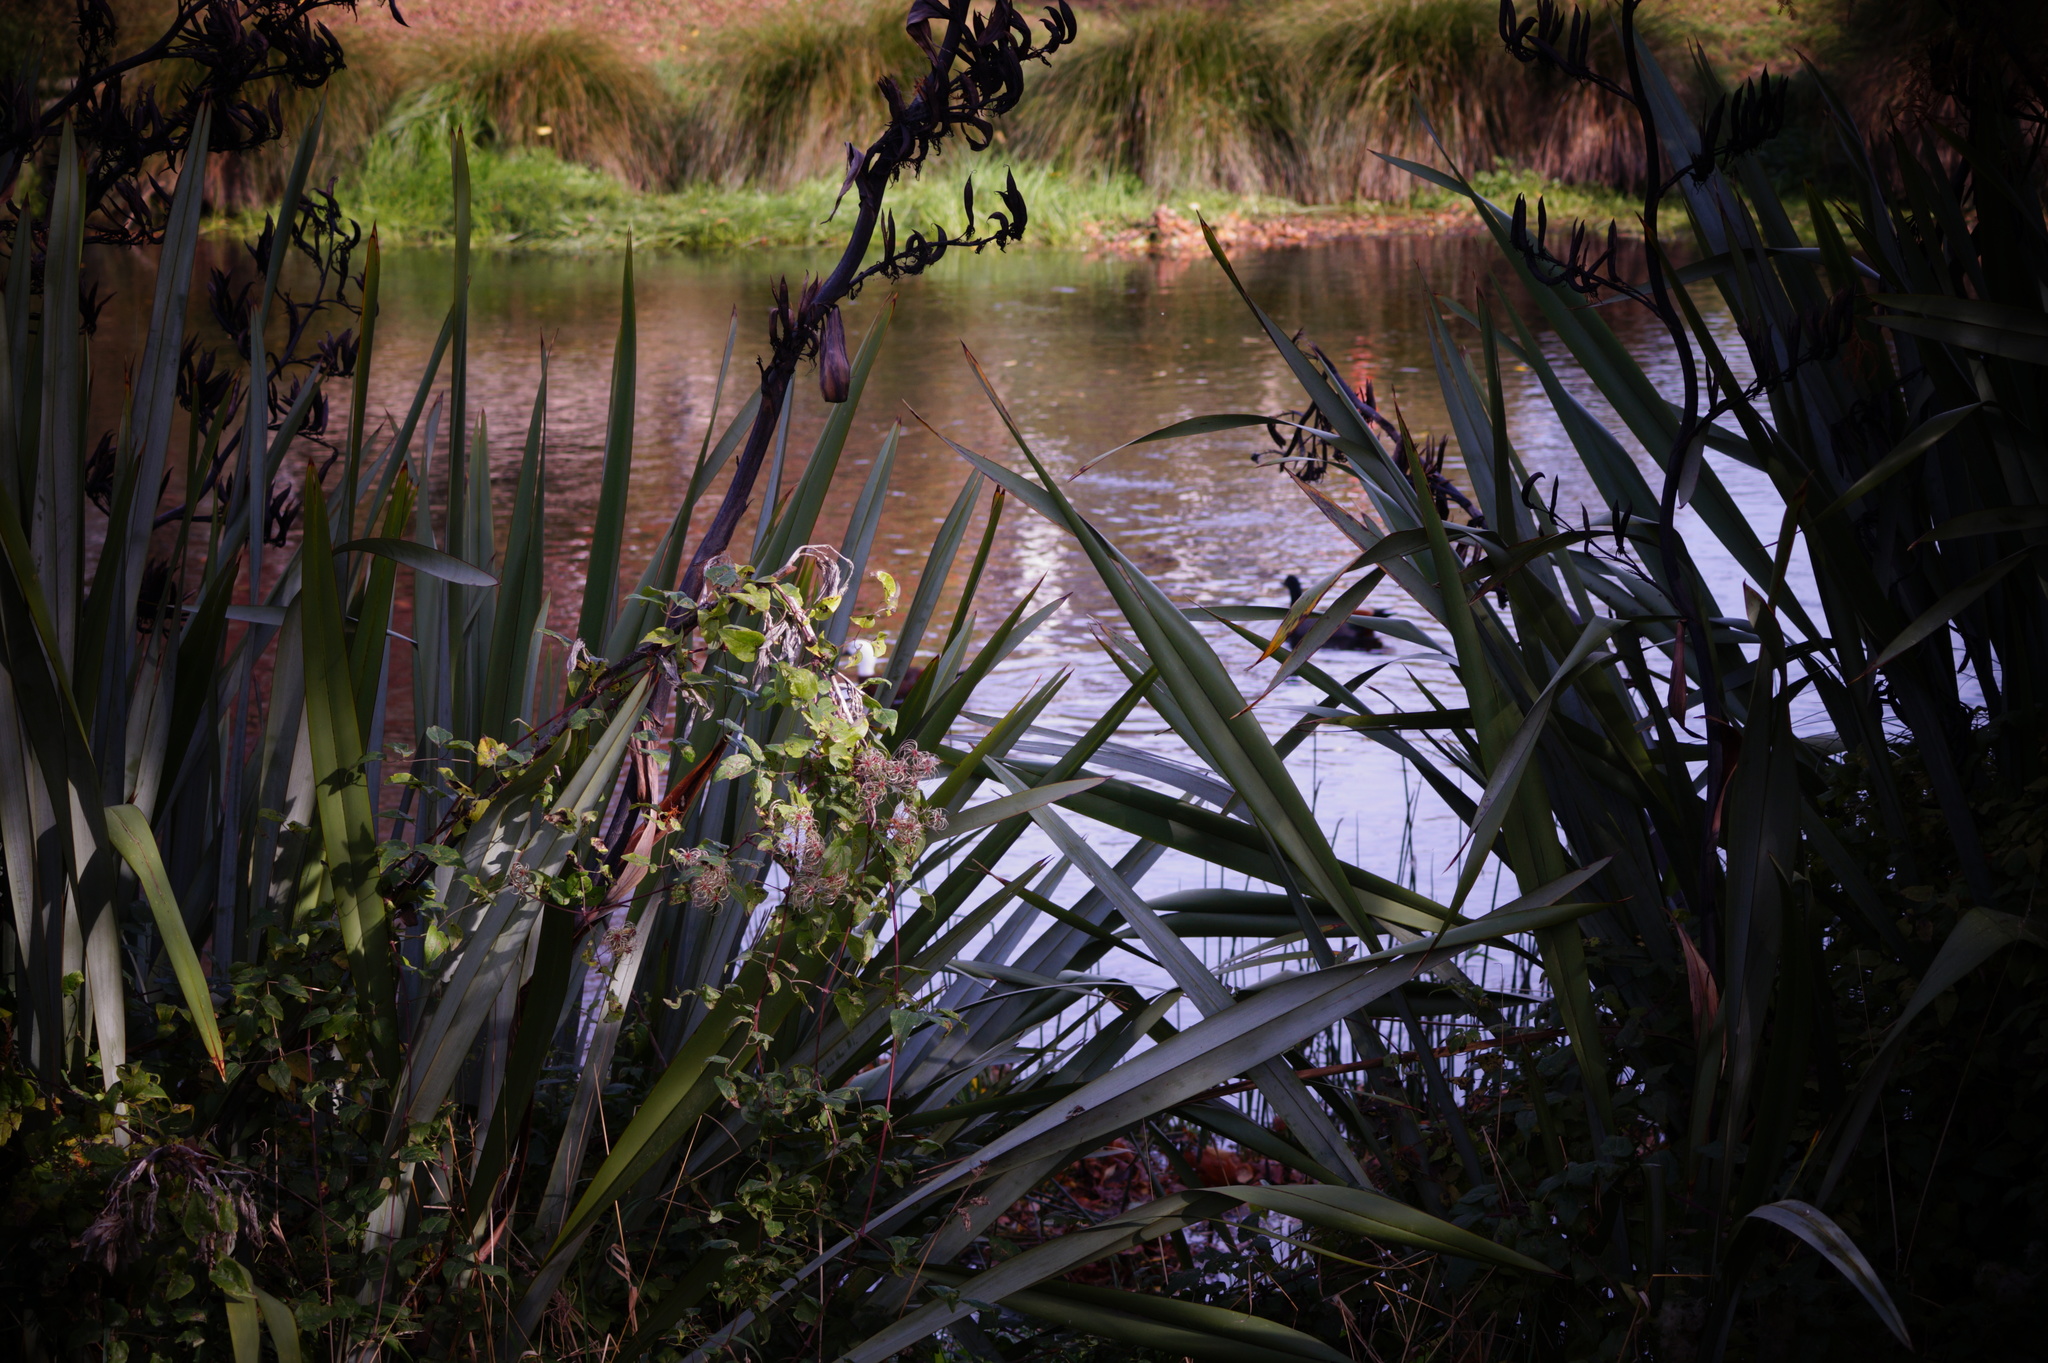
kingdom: Animalia
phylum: Chordata
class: Aves
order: Anseriformes
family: Anatidae
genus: Tadorna
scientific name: Tadorna variegata
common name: Paradise shelduck
